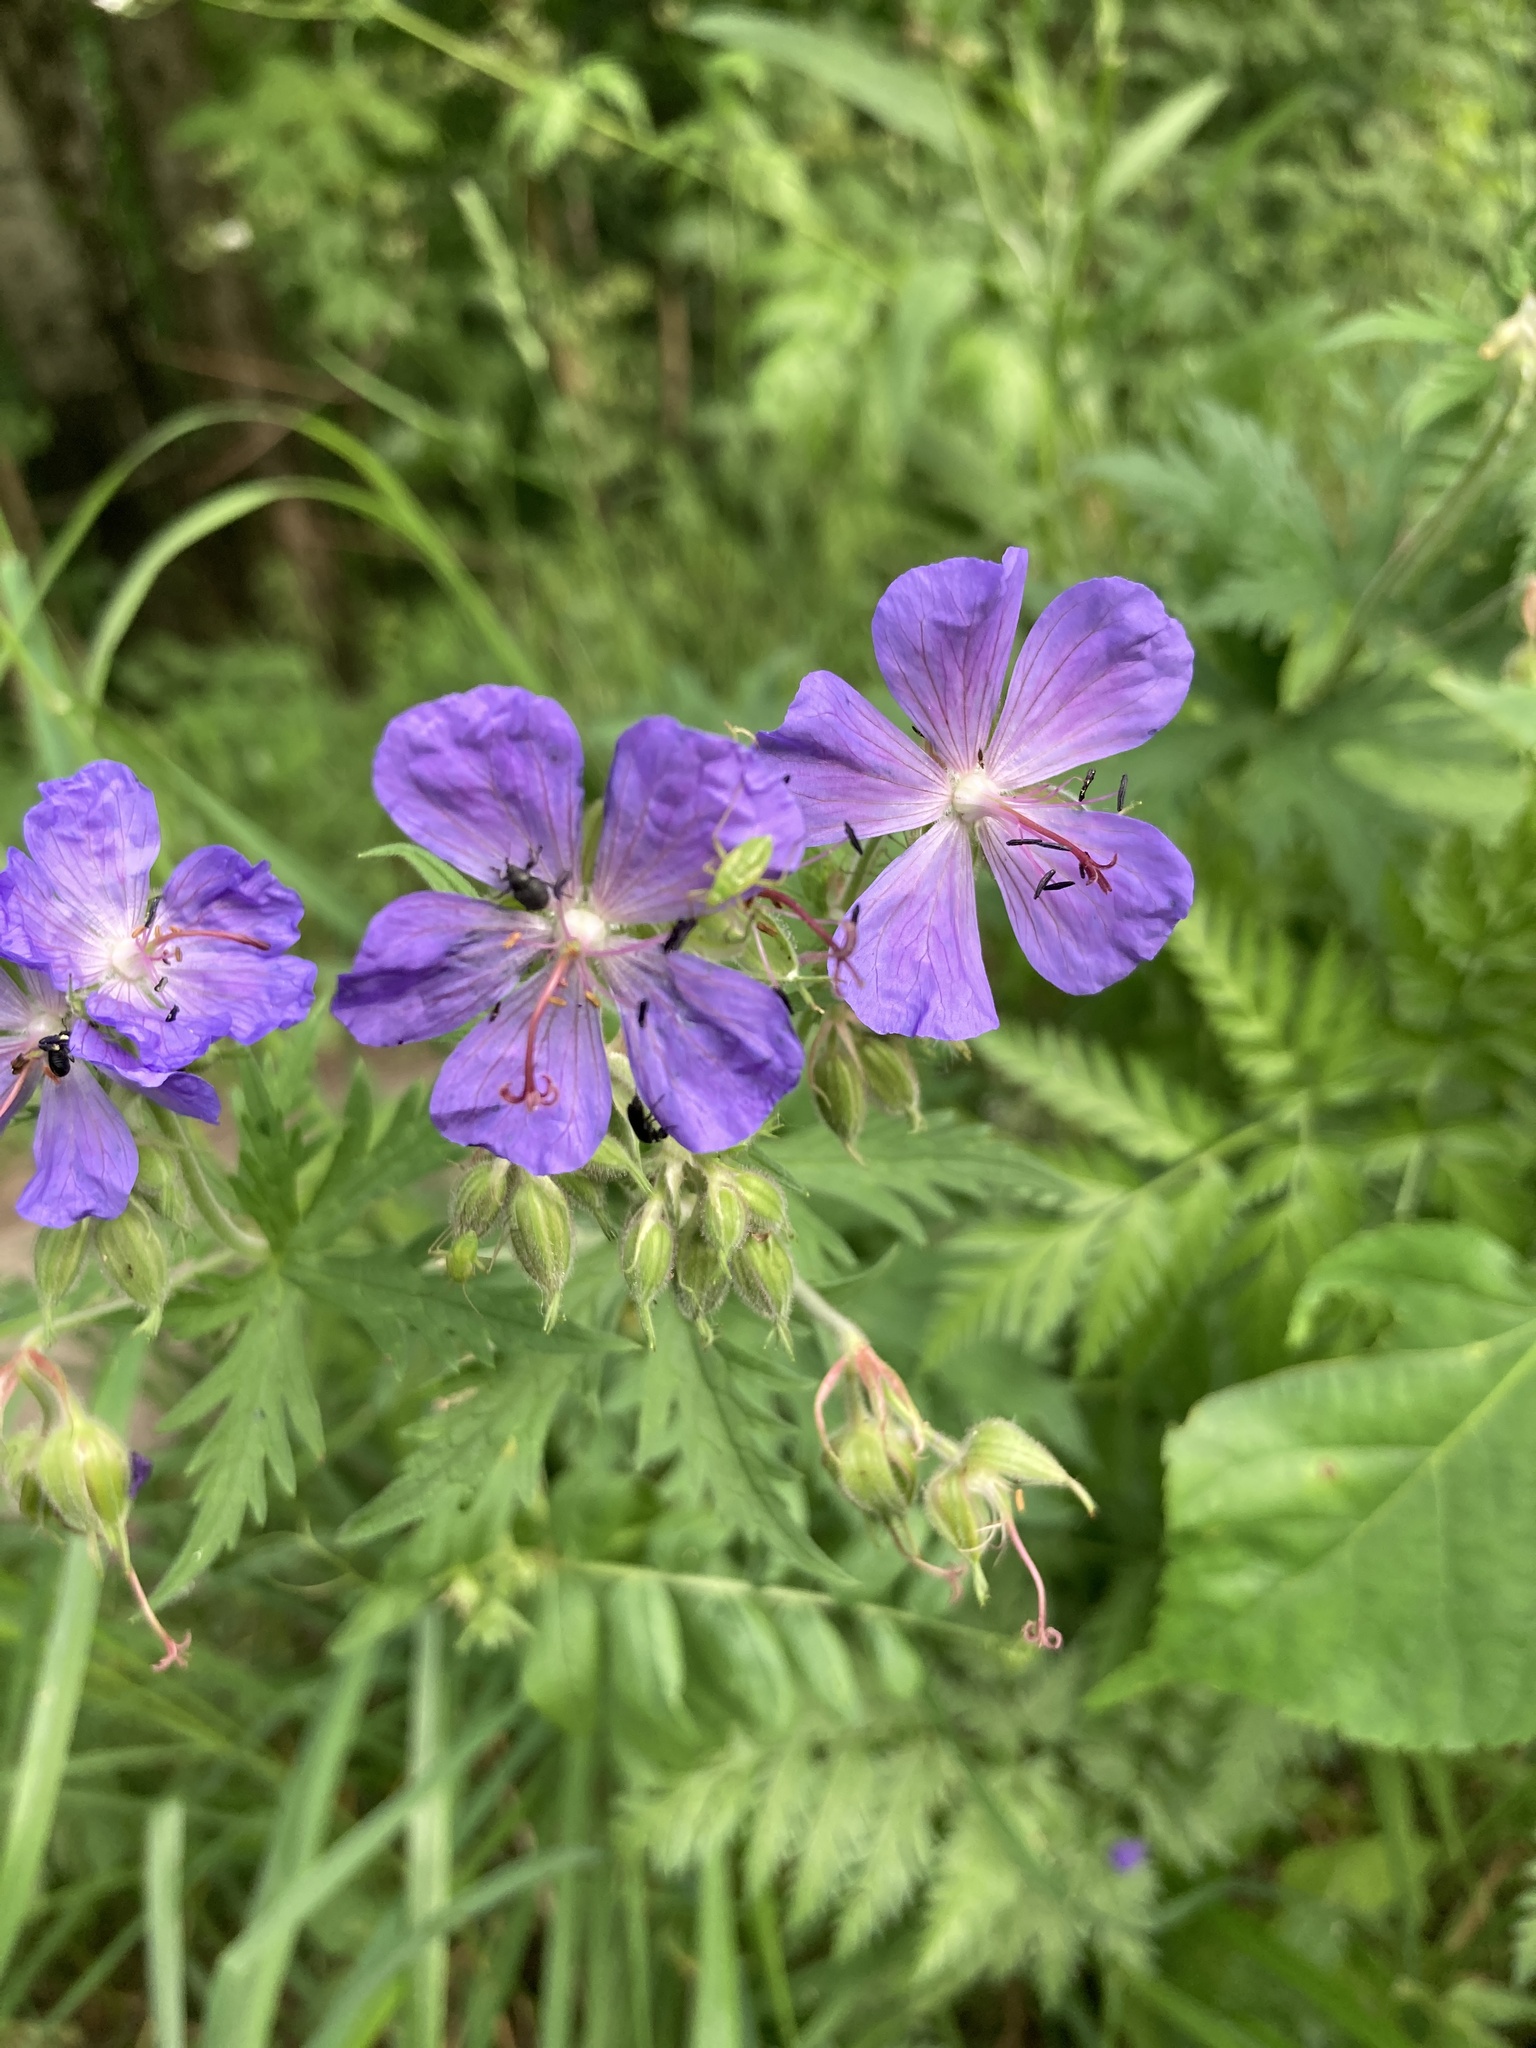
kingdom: Plantae
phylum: Tracheophyta
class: Magnoliopsida
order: Geraniales
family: Geraniaceae
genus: Geranium
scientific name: Geranium pratense
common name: Meadow crane's-bill
